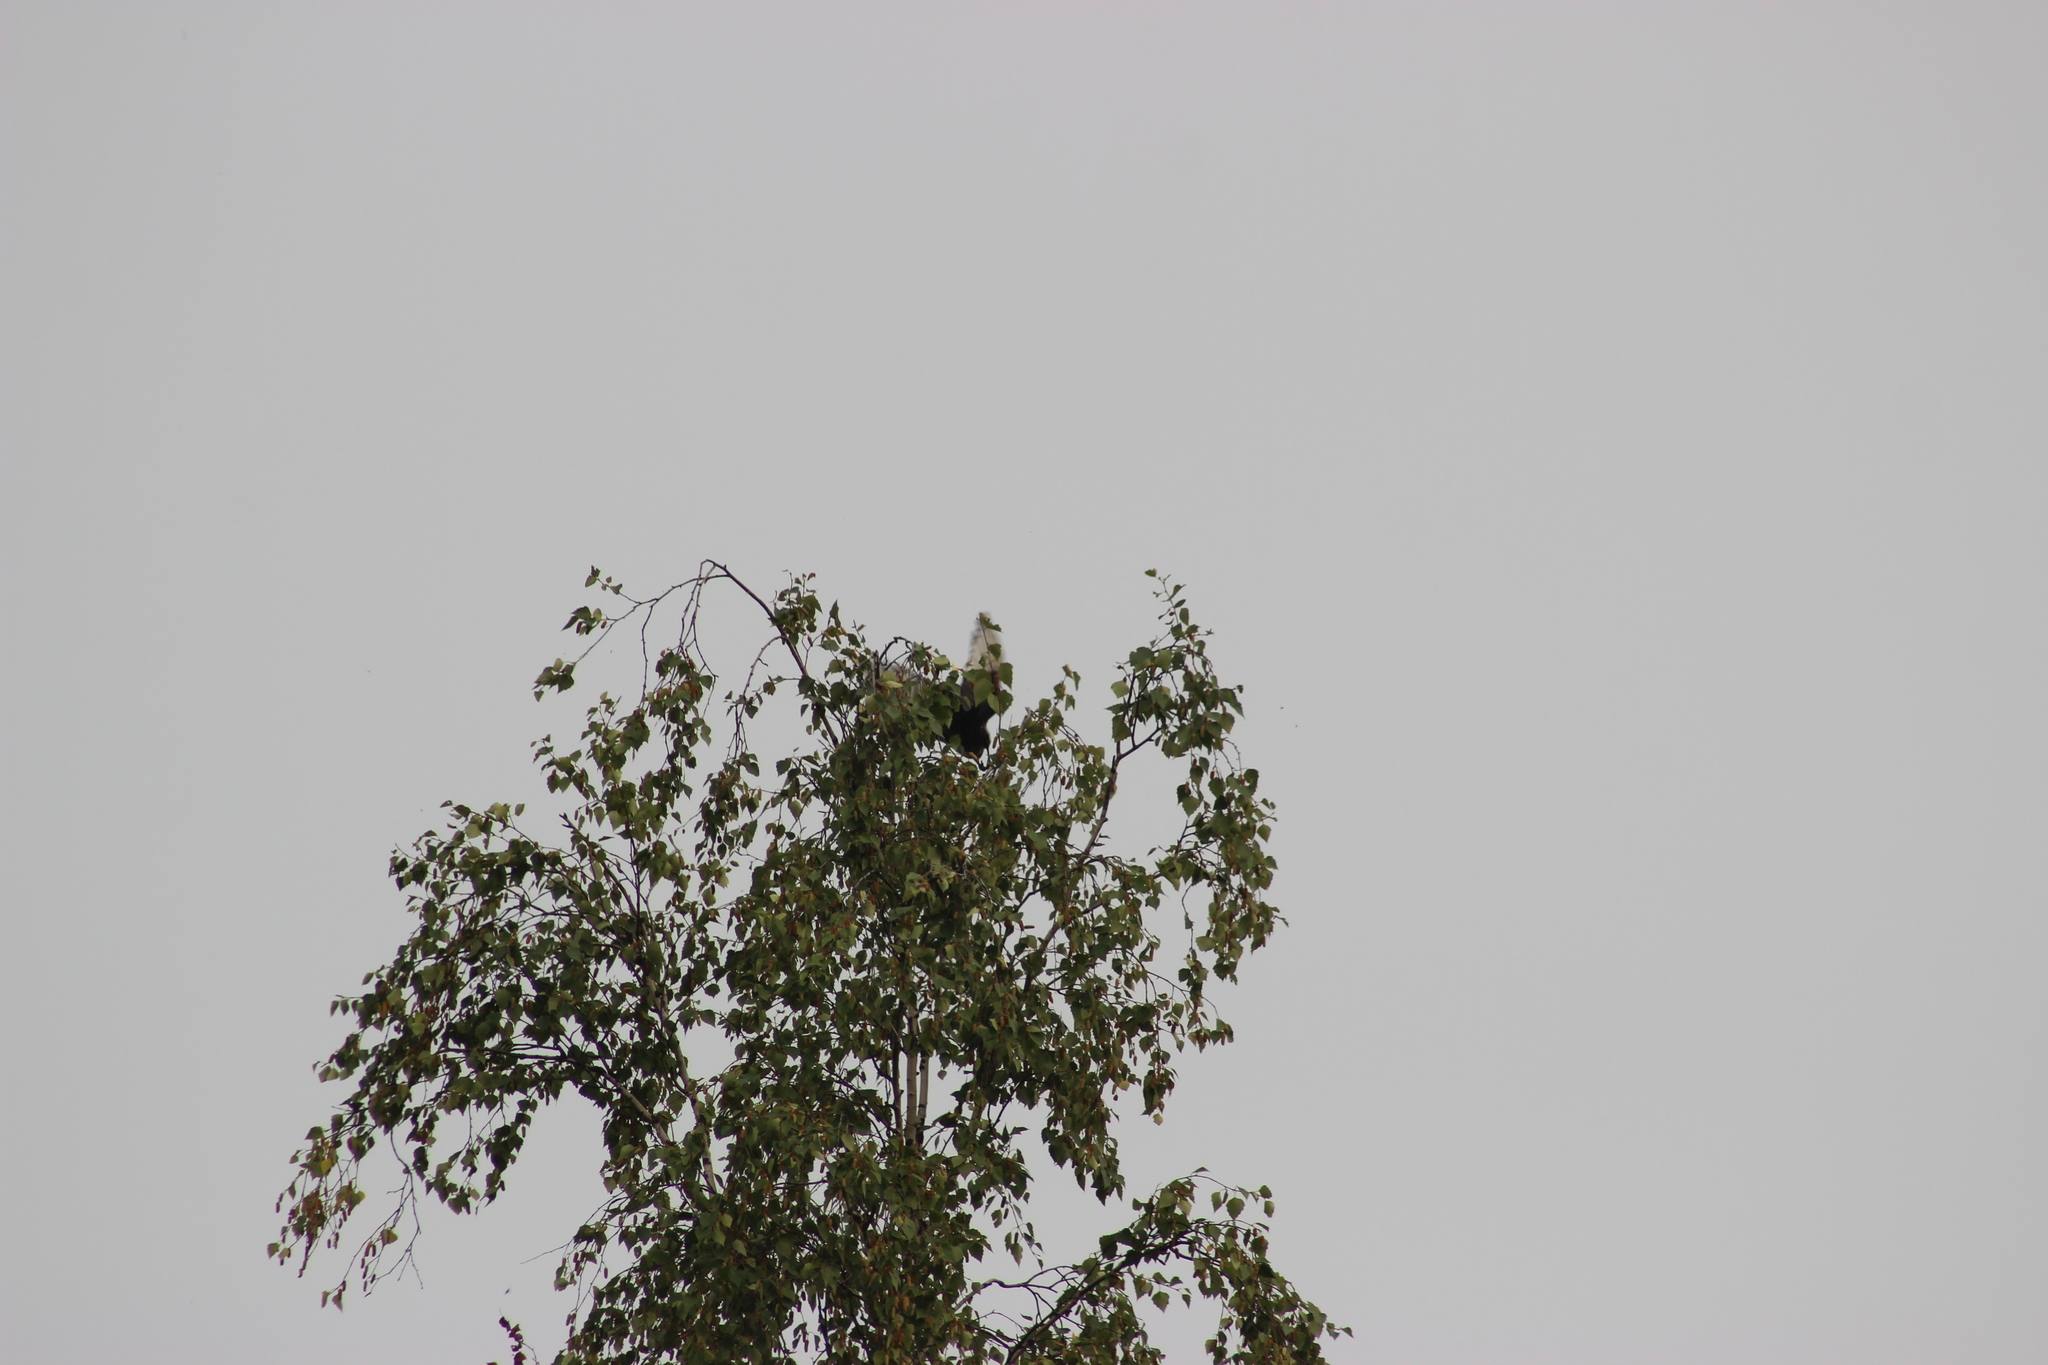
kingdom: Animalia
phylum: Chordata
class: Aves
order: Passeriformes
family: Corvidae
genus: Pica
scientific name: Pica pica
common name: Eurasian magpie
